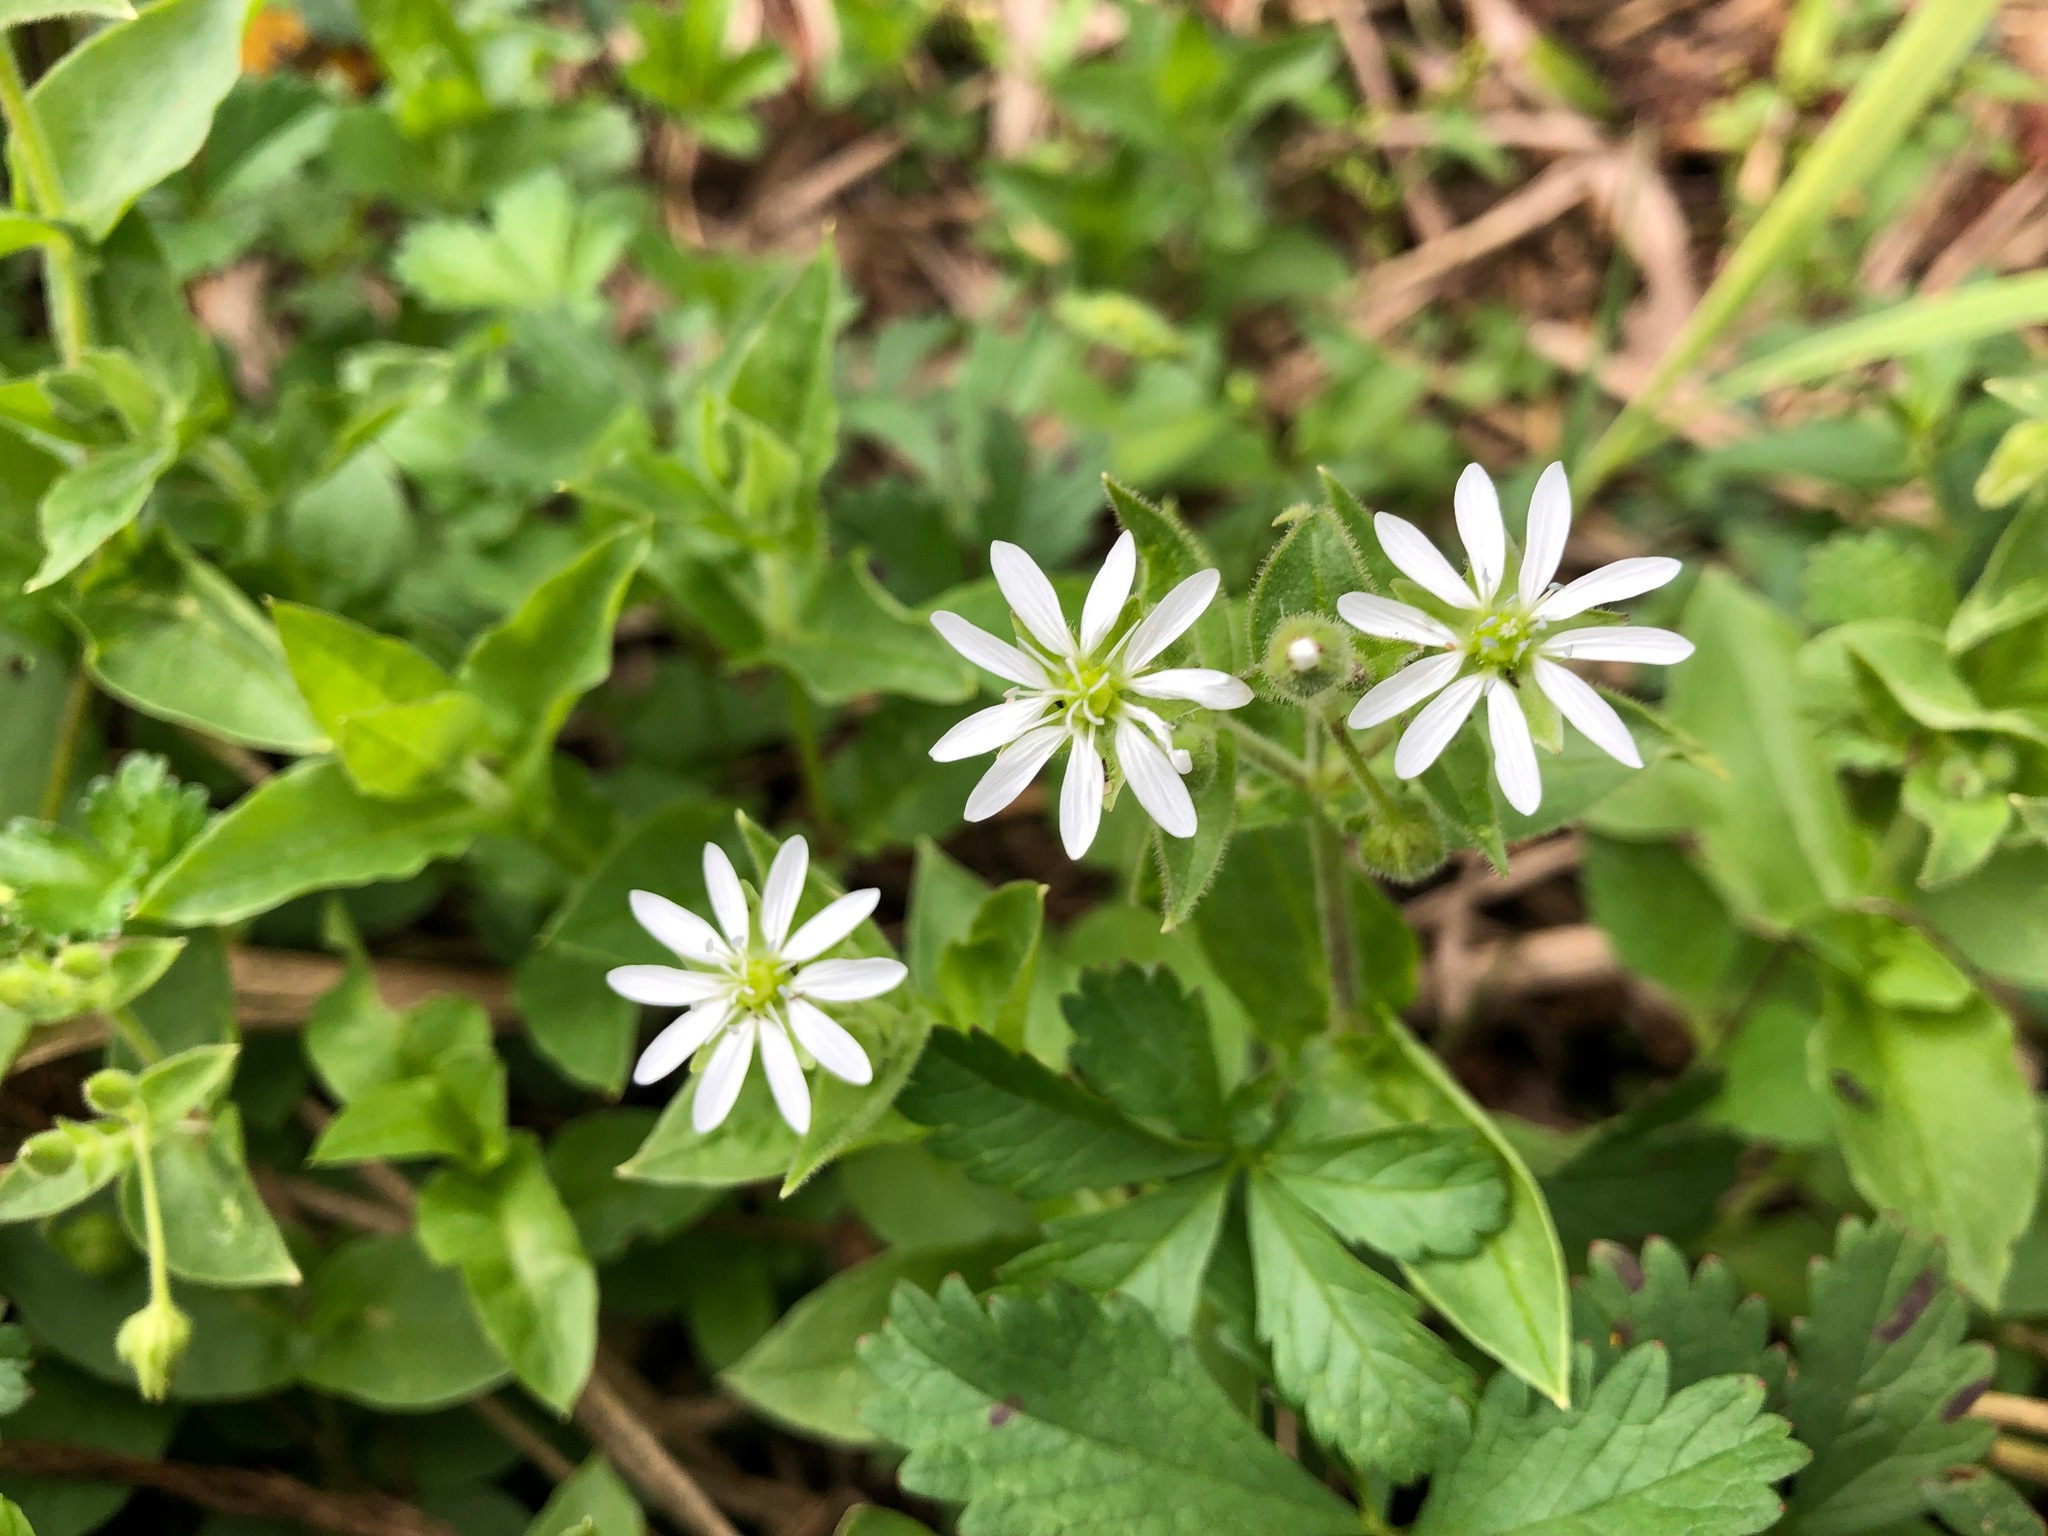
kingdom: Plantae
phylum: Tracheophyta
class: Magnoliopsida
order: Caryophyllales
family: Caryophyllaceae
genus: Stellaria
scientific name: Stellaria aquatica
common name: Water chickweed
